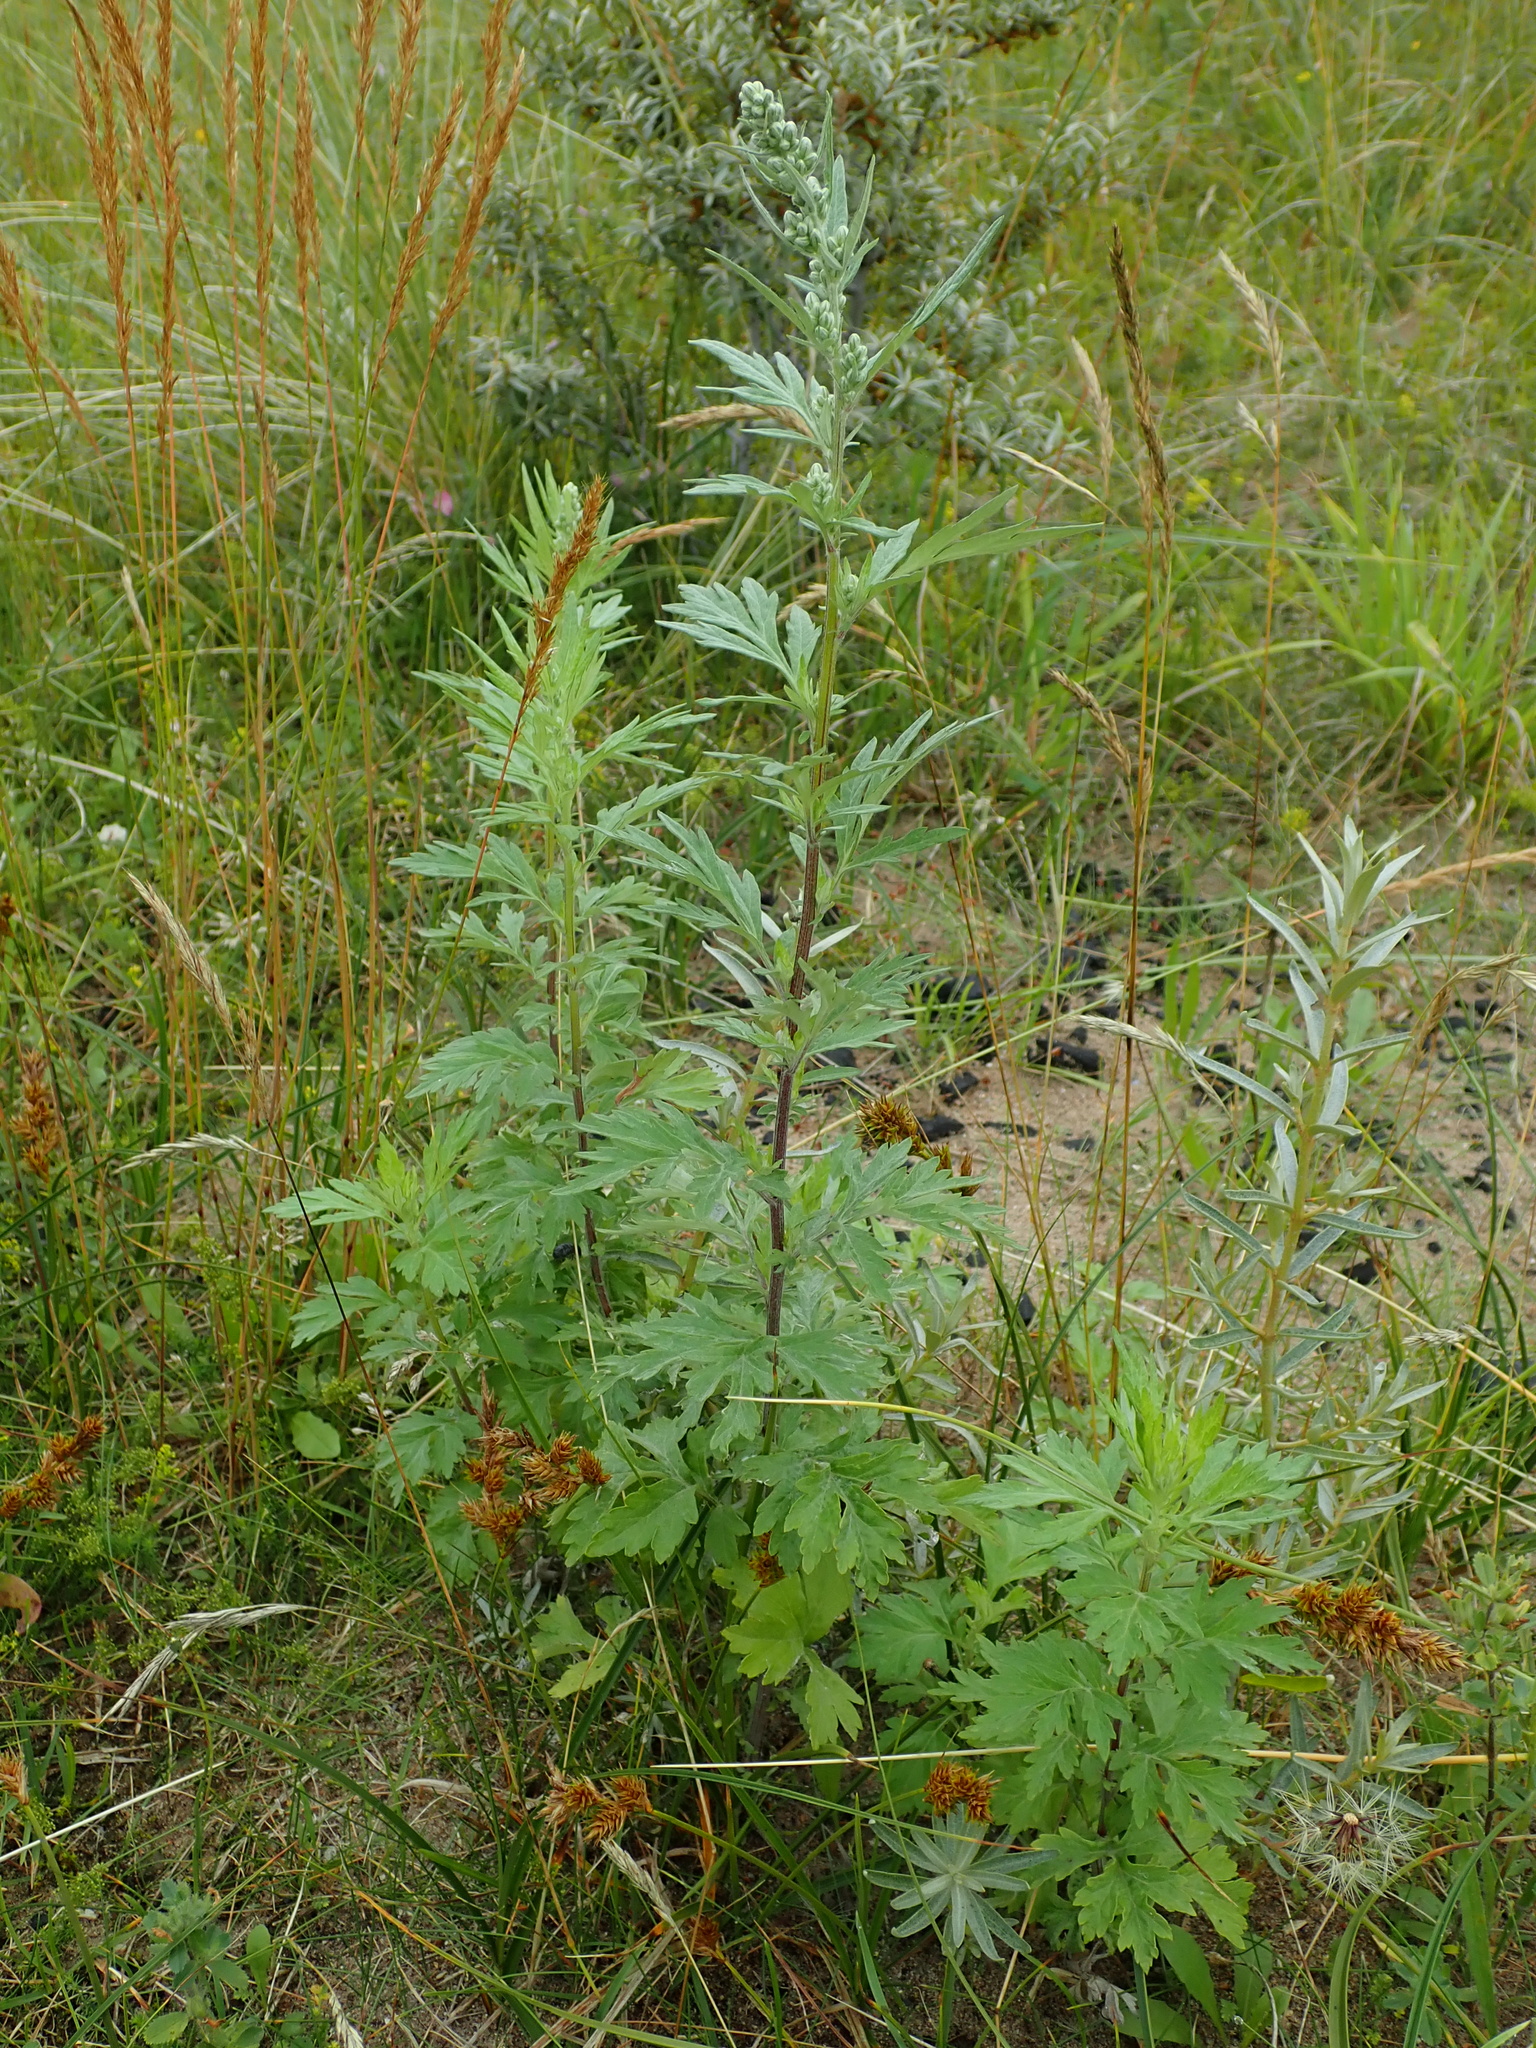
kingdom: Plantae
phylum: Tracheophyta
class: Magnoliopsida
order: Asterales
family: Asteraceae
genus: Artemisia
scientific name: Artemisia vulgaris
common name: Mugwort
